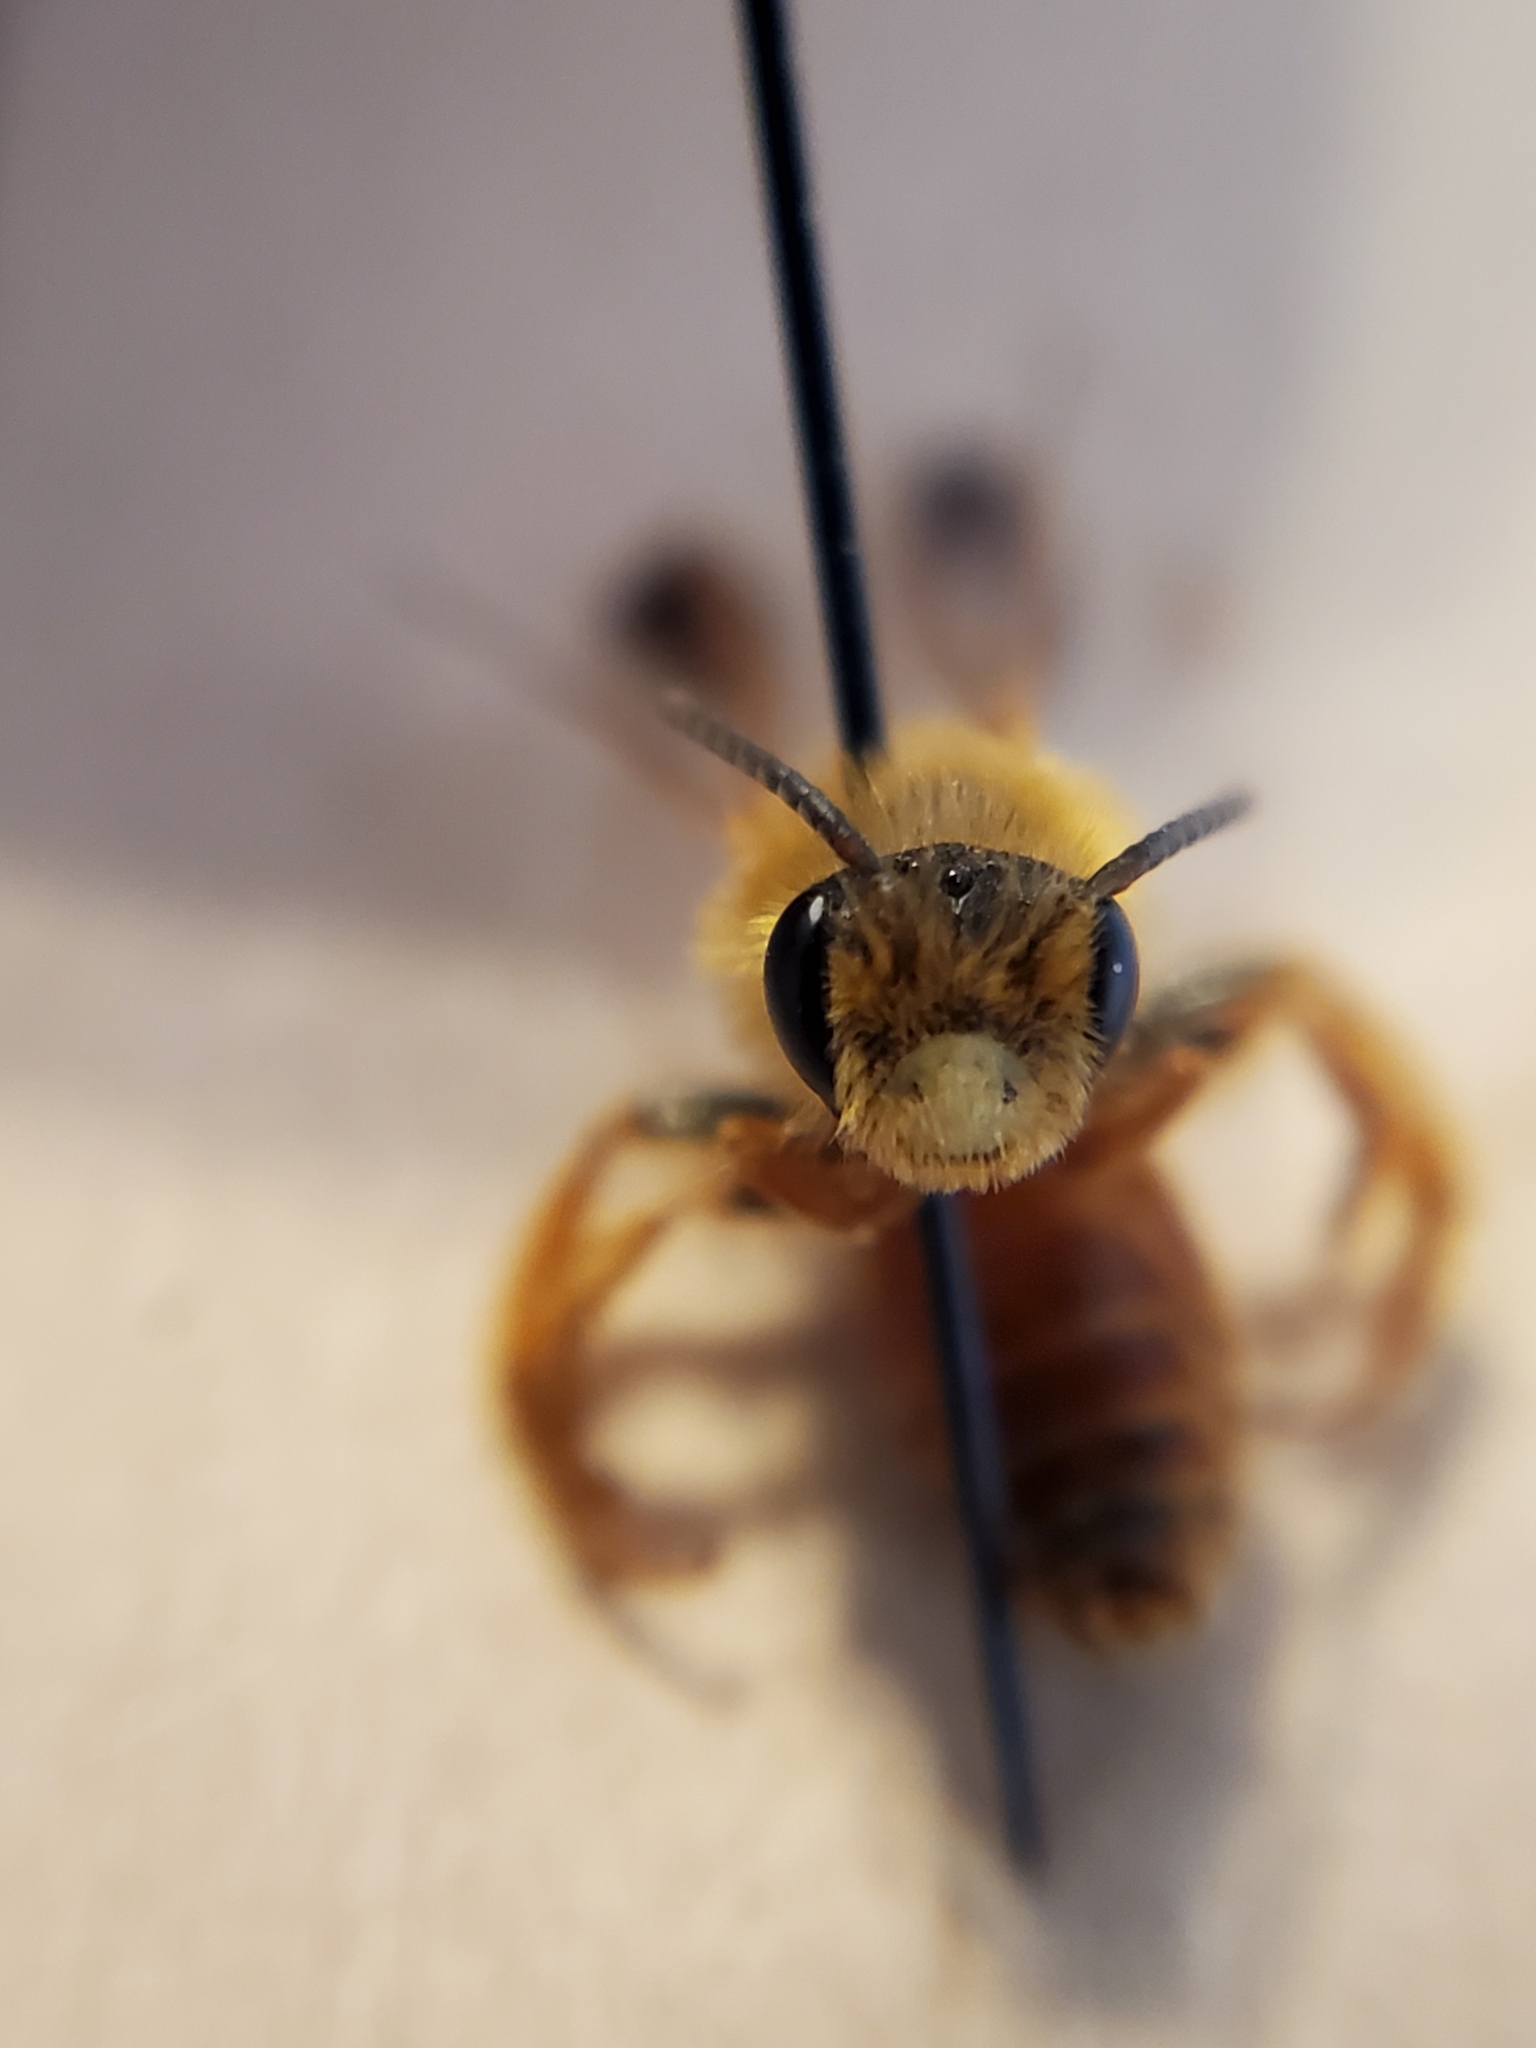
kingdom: Animalia
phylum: Arthropoda
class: Insecta
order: Hymenoptera
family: Andrenidae
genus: Andrena
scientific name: Andrena prunorum
